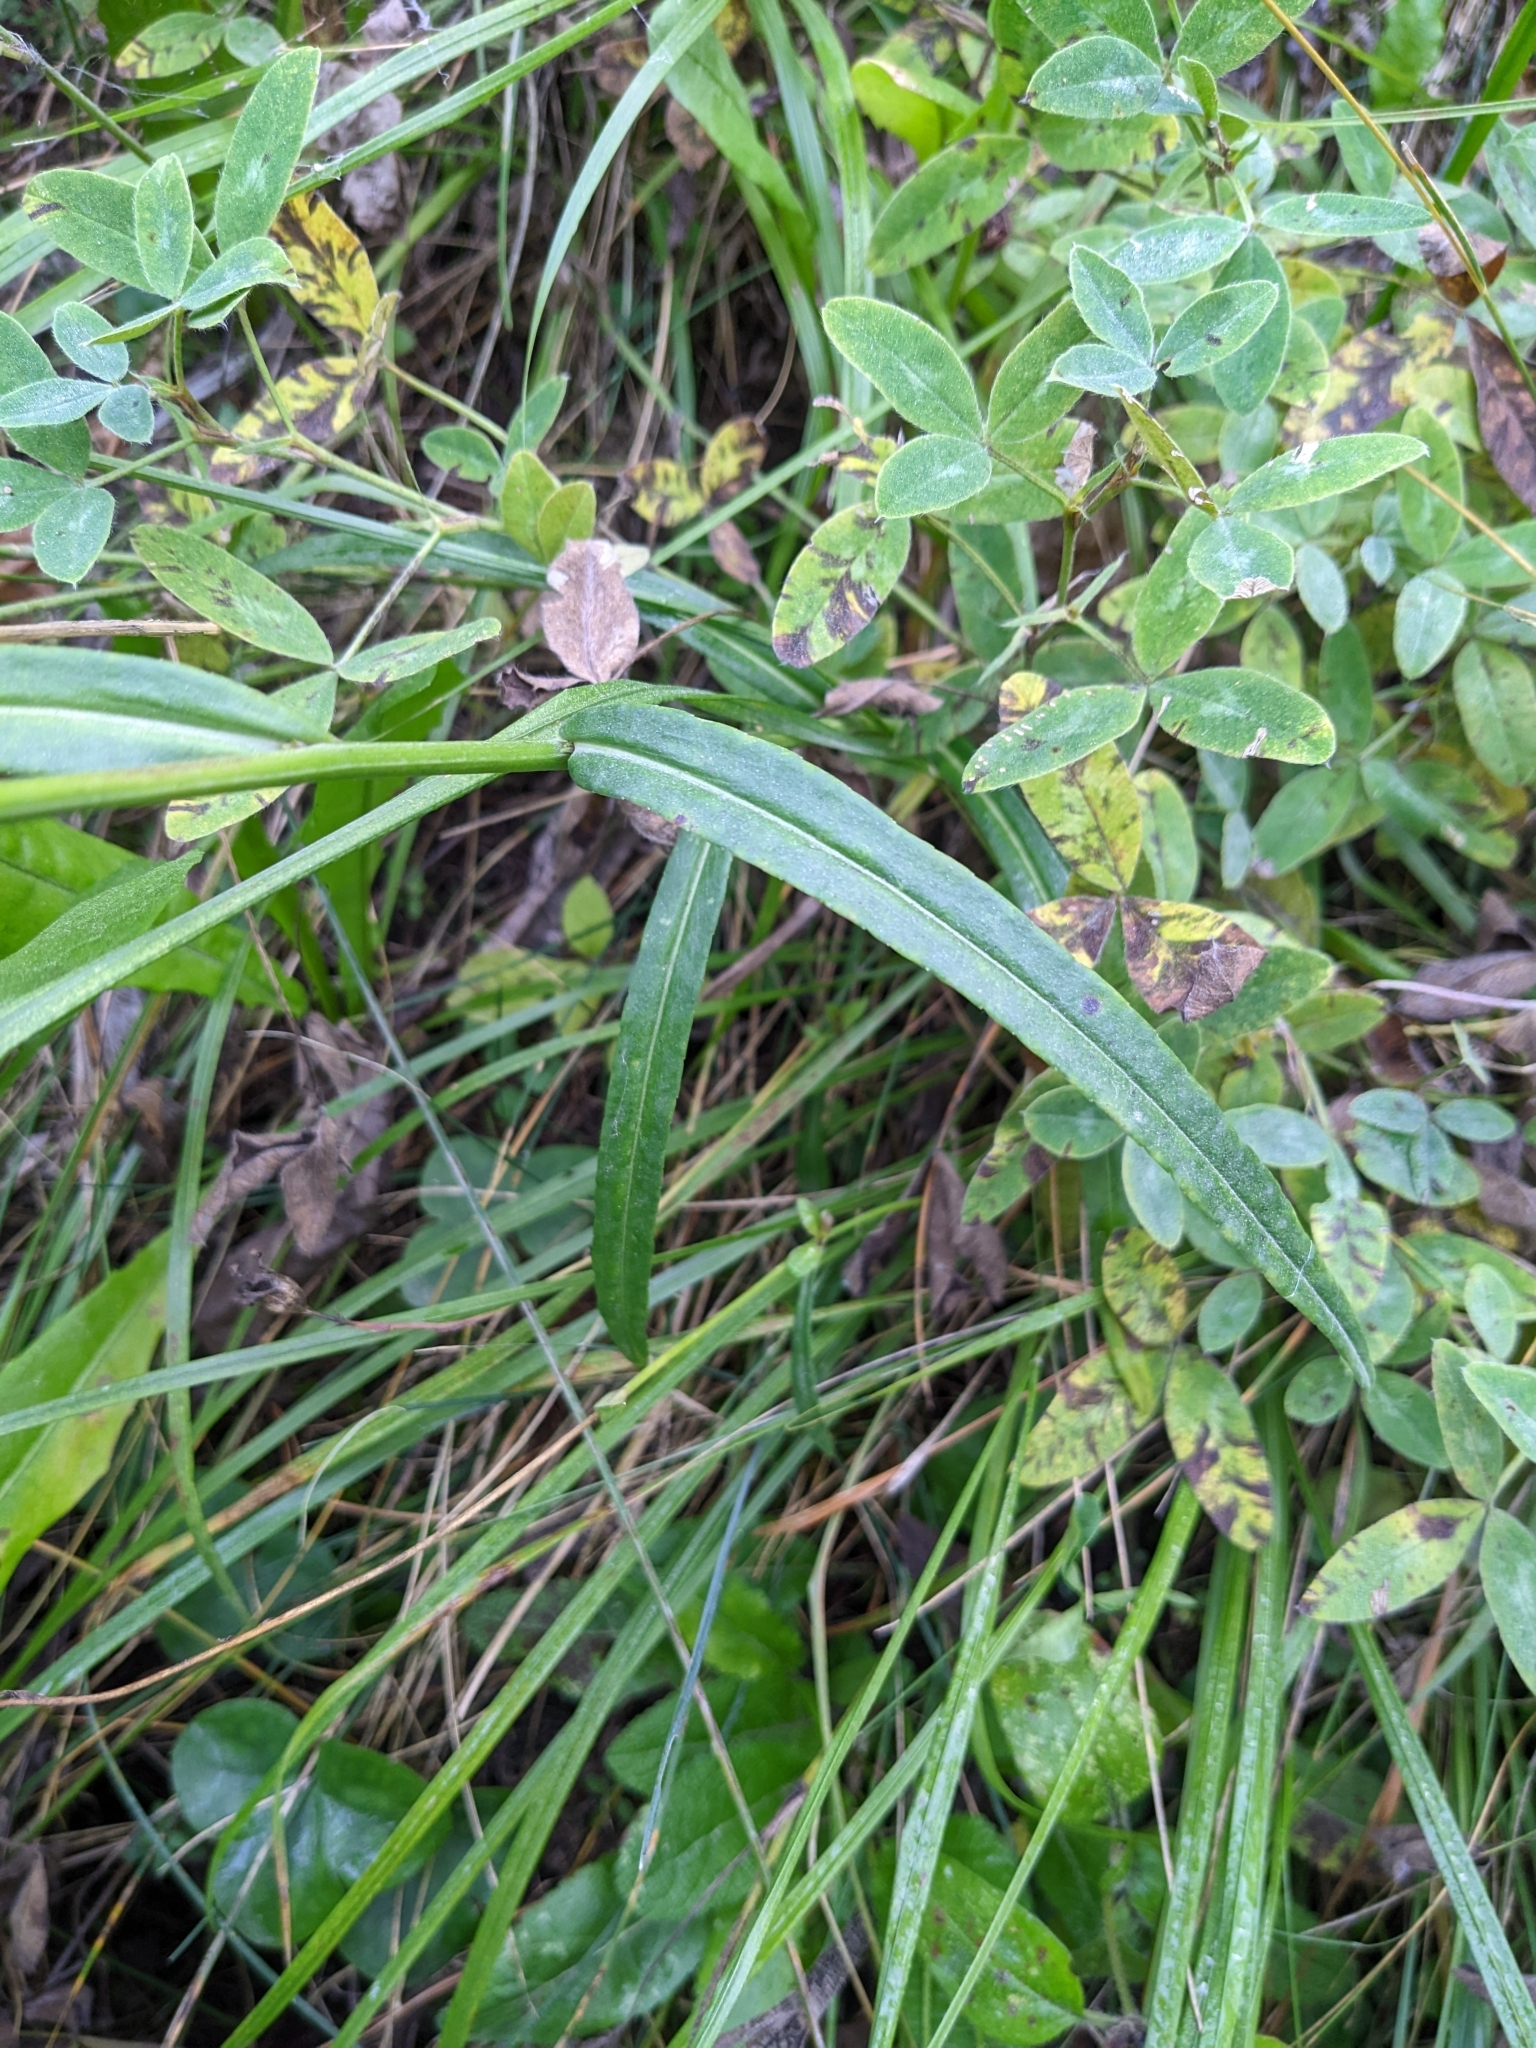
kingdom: Plantae
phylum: Tracheophyta
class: Magnoliopsida
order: Asterales
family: Campanulaceae
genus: Campanula
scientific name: Campanula persicifolia
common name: Peach-leaved bellflower
